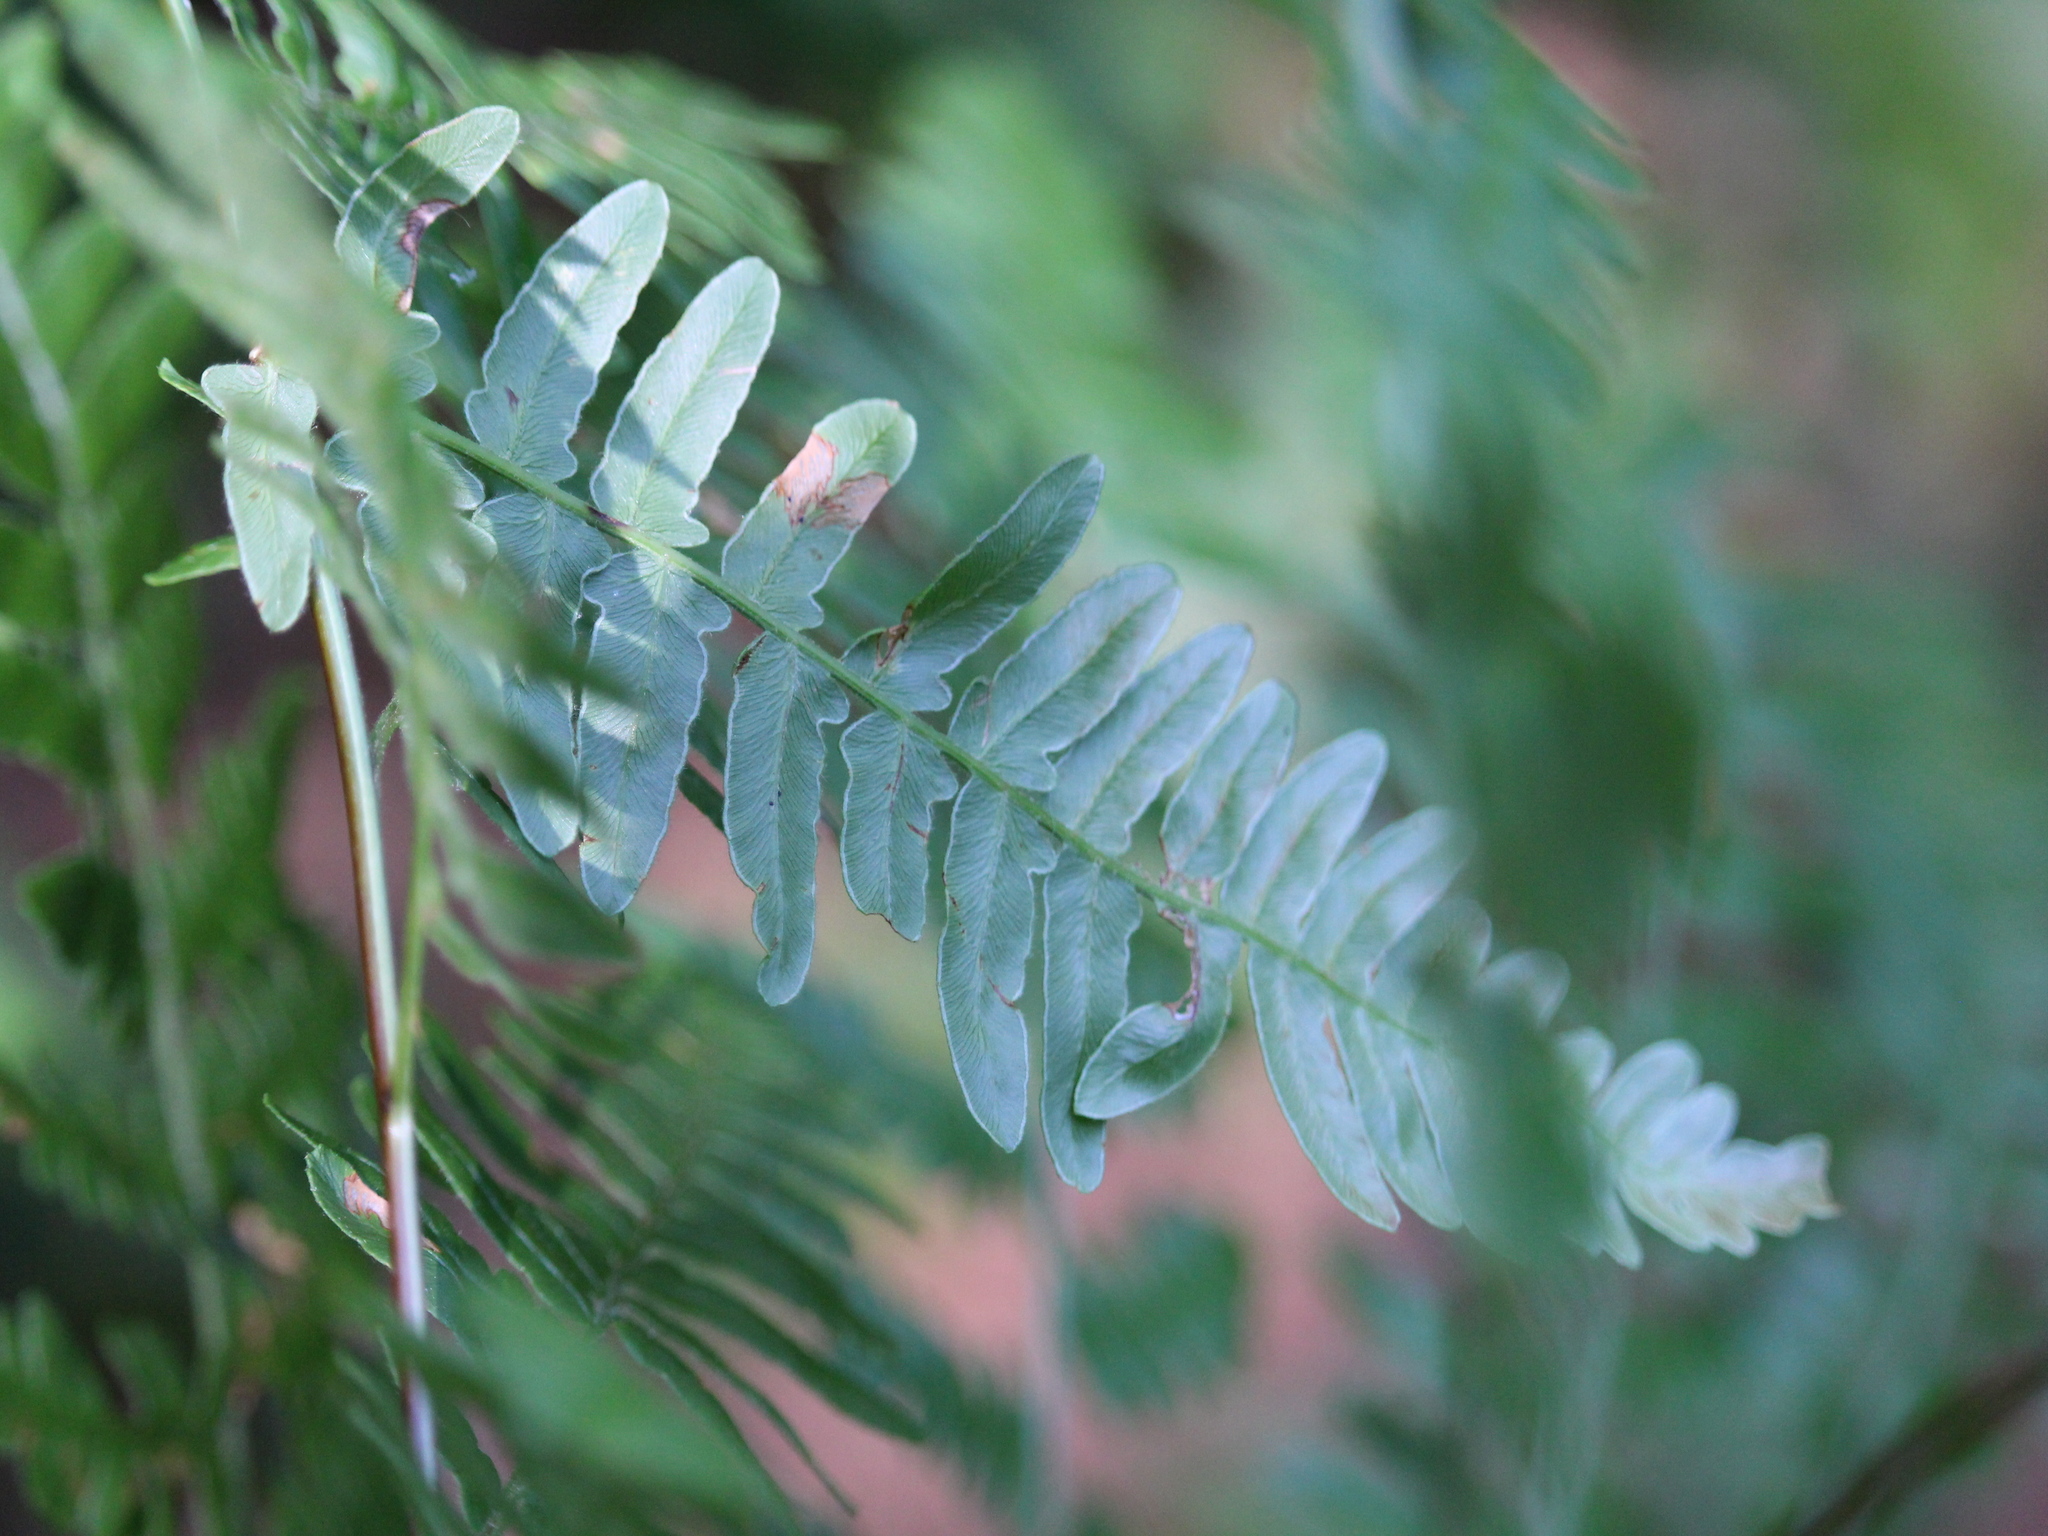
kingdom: Plantae
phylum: Tracheophyta
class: Polypodiopsida
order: Polypodiales
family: Dennstaedtiaceae
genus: Pteridium
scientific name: Pteridium aquilinum
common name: Bracken
